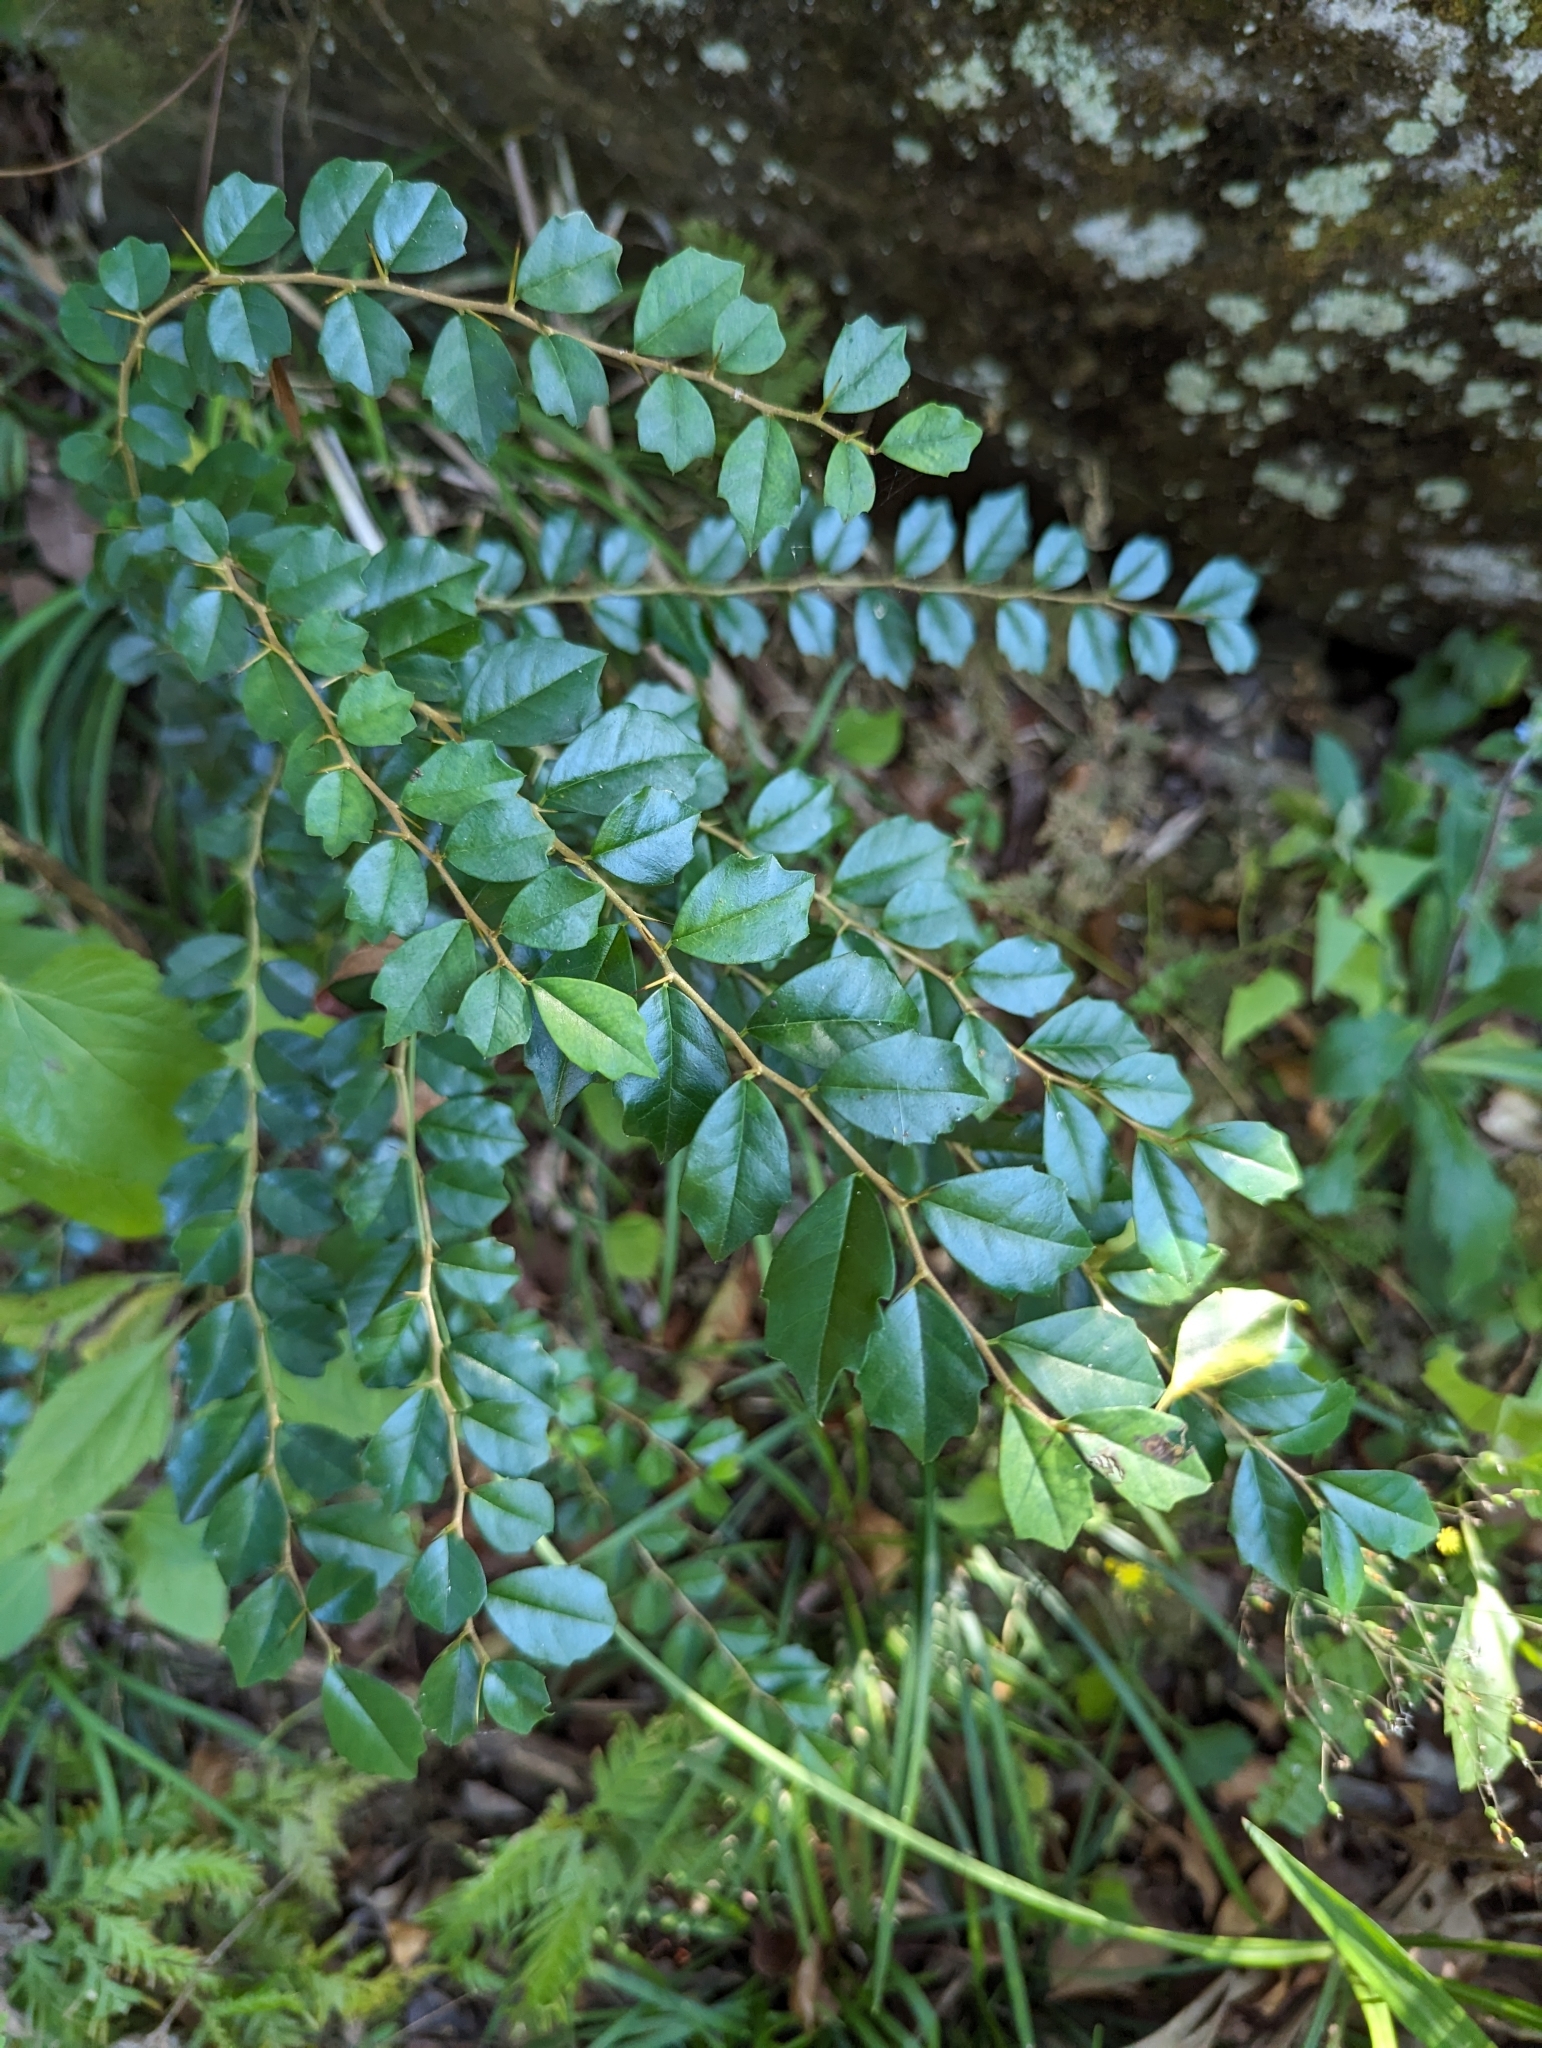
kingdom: Plantae
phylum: Tracheophyta
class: Magnoliopsida
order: Rosales
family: Moraceae
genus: Maclura
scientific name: Maclura cochinchinensis
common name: Cockspurthorn
